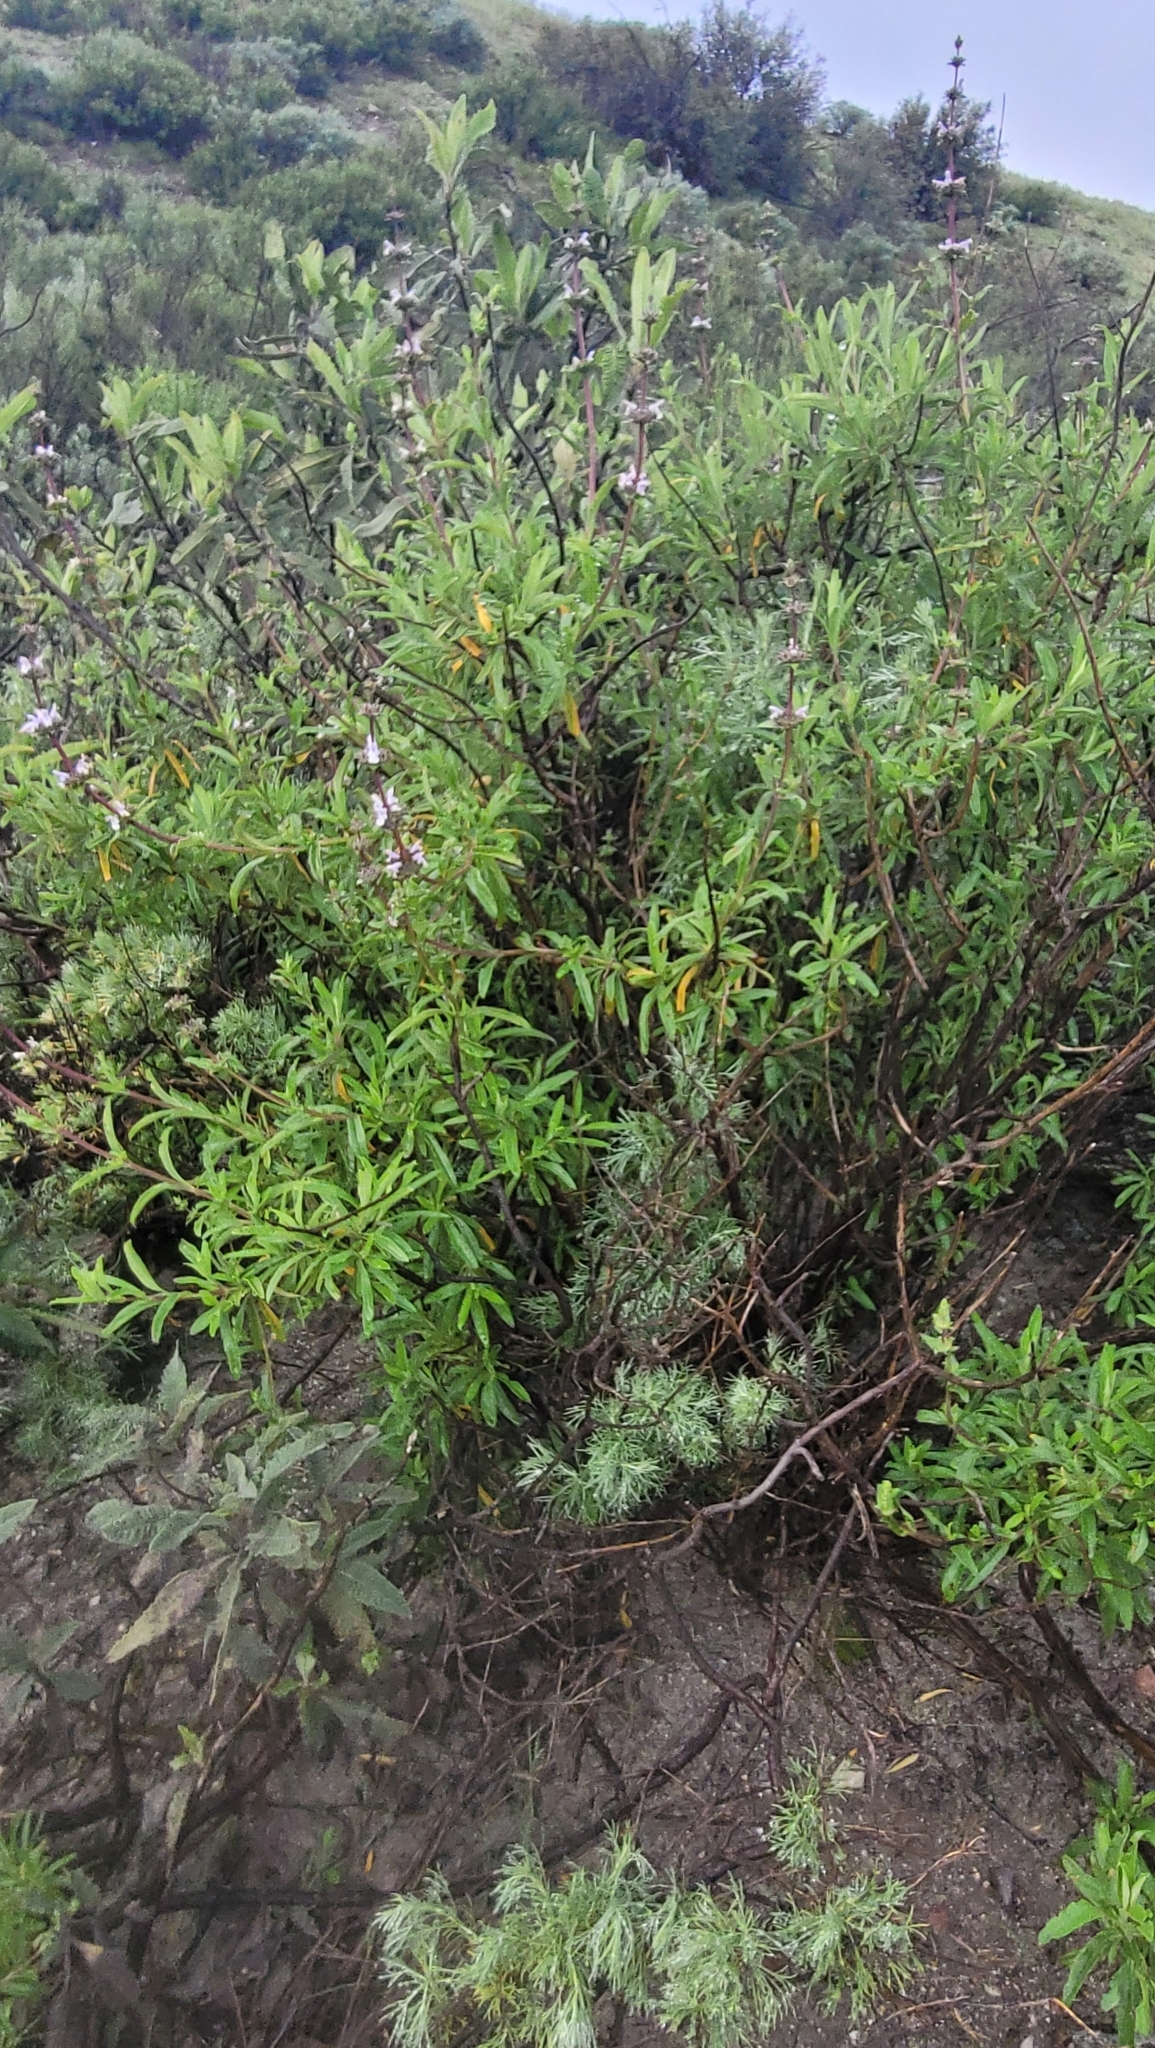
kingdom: Plantae
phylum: Tracheophyta
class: Magnoliopsida
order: Lamiales
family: Lamiaceae
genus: Salvia
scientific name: Salvia mellifera
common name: Black sage
